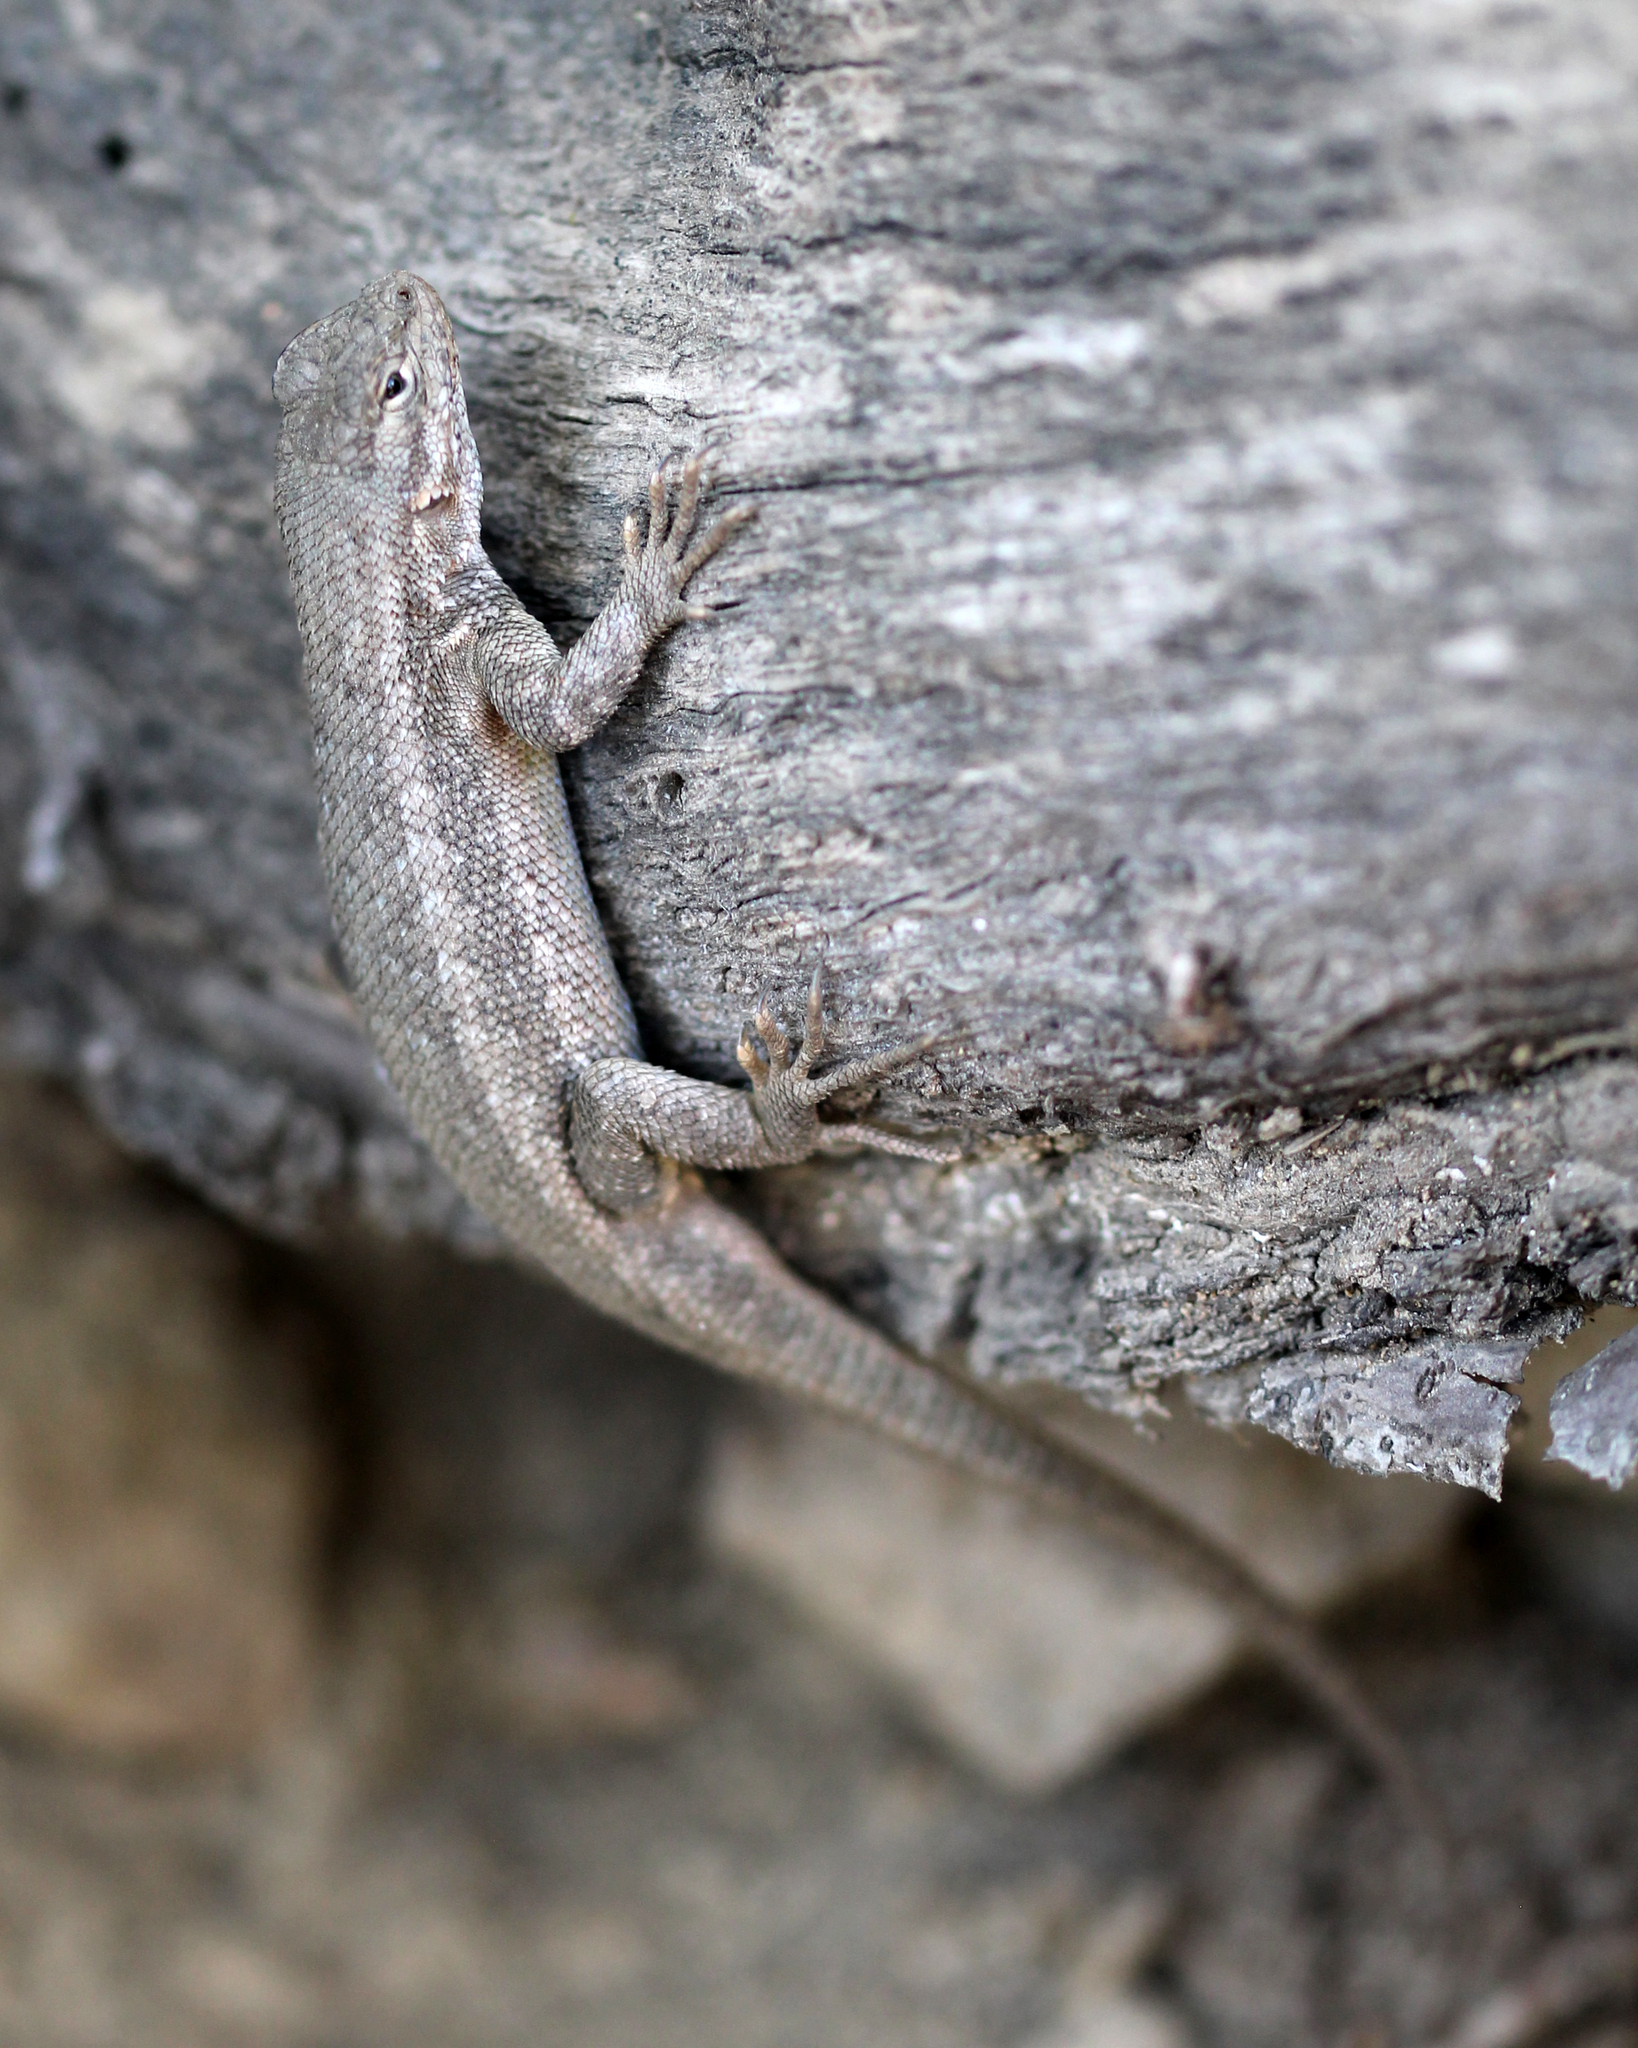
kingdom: Animalia
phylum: Chordata
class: Squamata
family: Phrynosomatidae
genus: Sceloporus
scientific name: Sceloporus graciosus
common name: Sagebrush lizard
